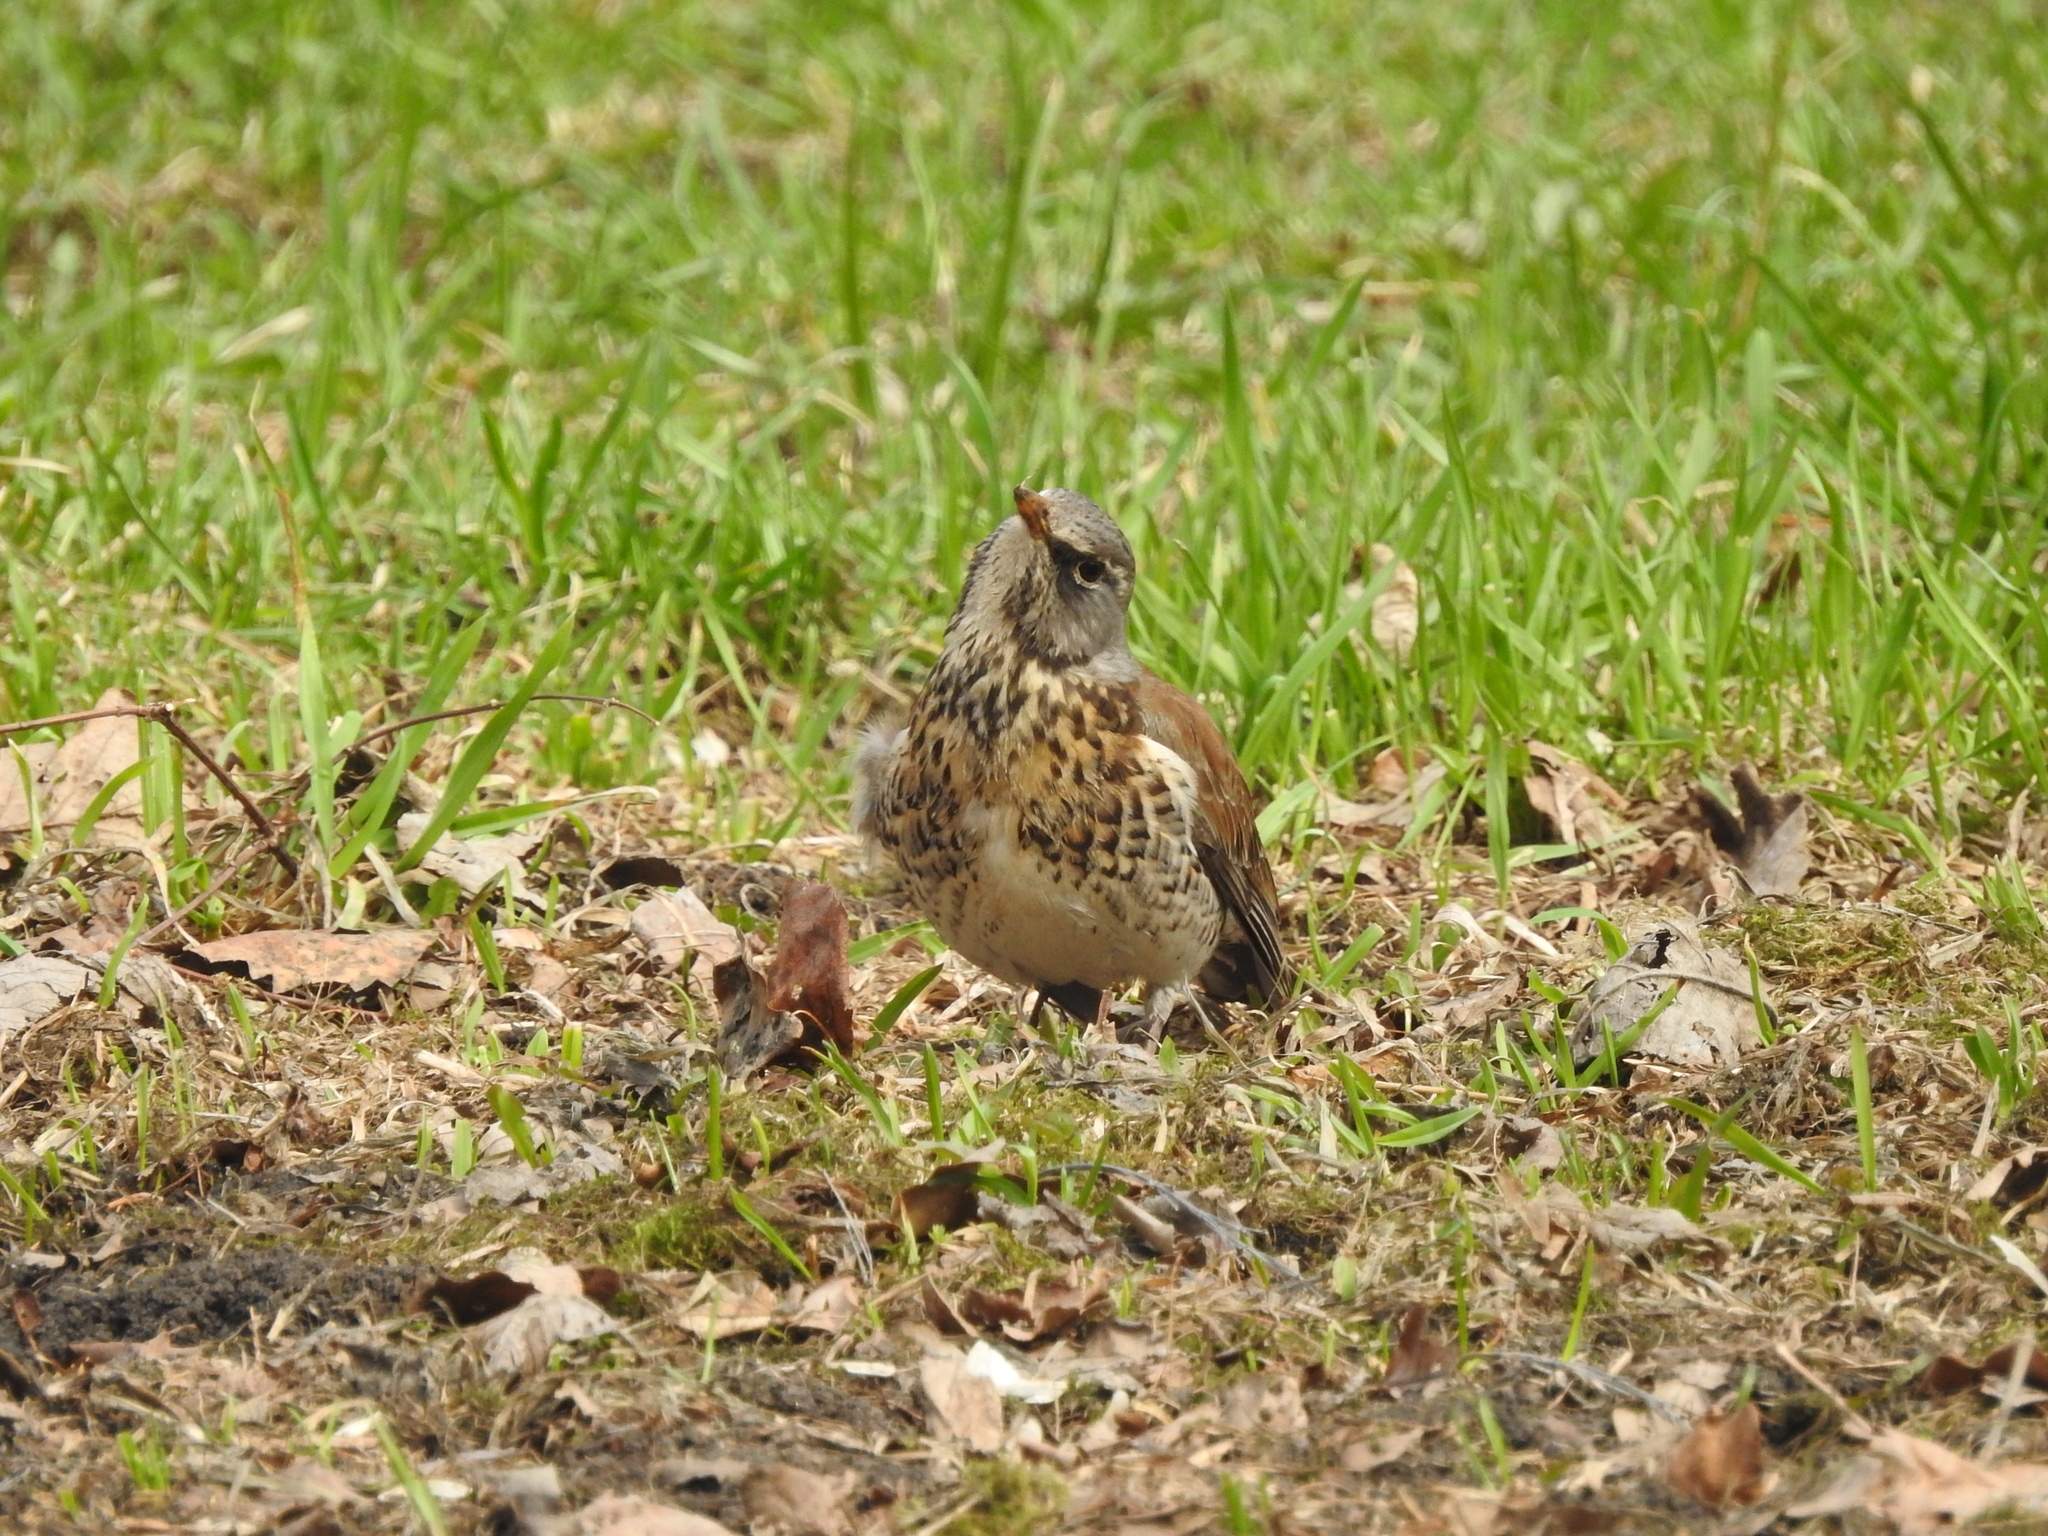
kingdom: Animalia
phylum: Chordata
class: Aves
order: Passeriformes
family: Turdidae
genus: Turdus
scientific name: Turdus pilaris
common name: Fieldfare
